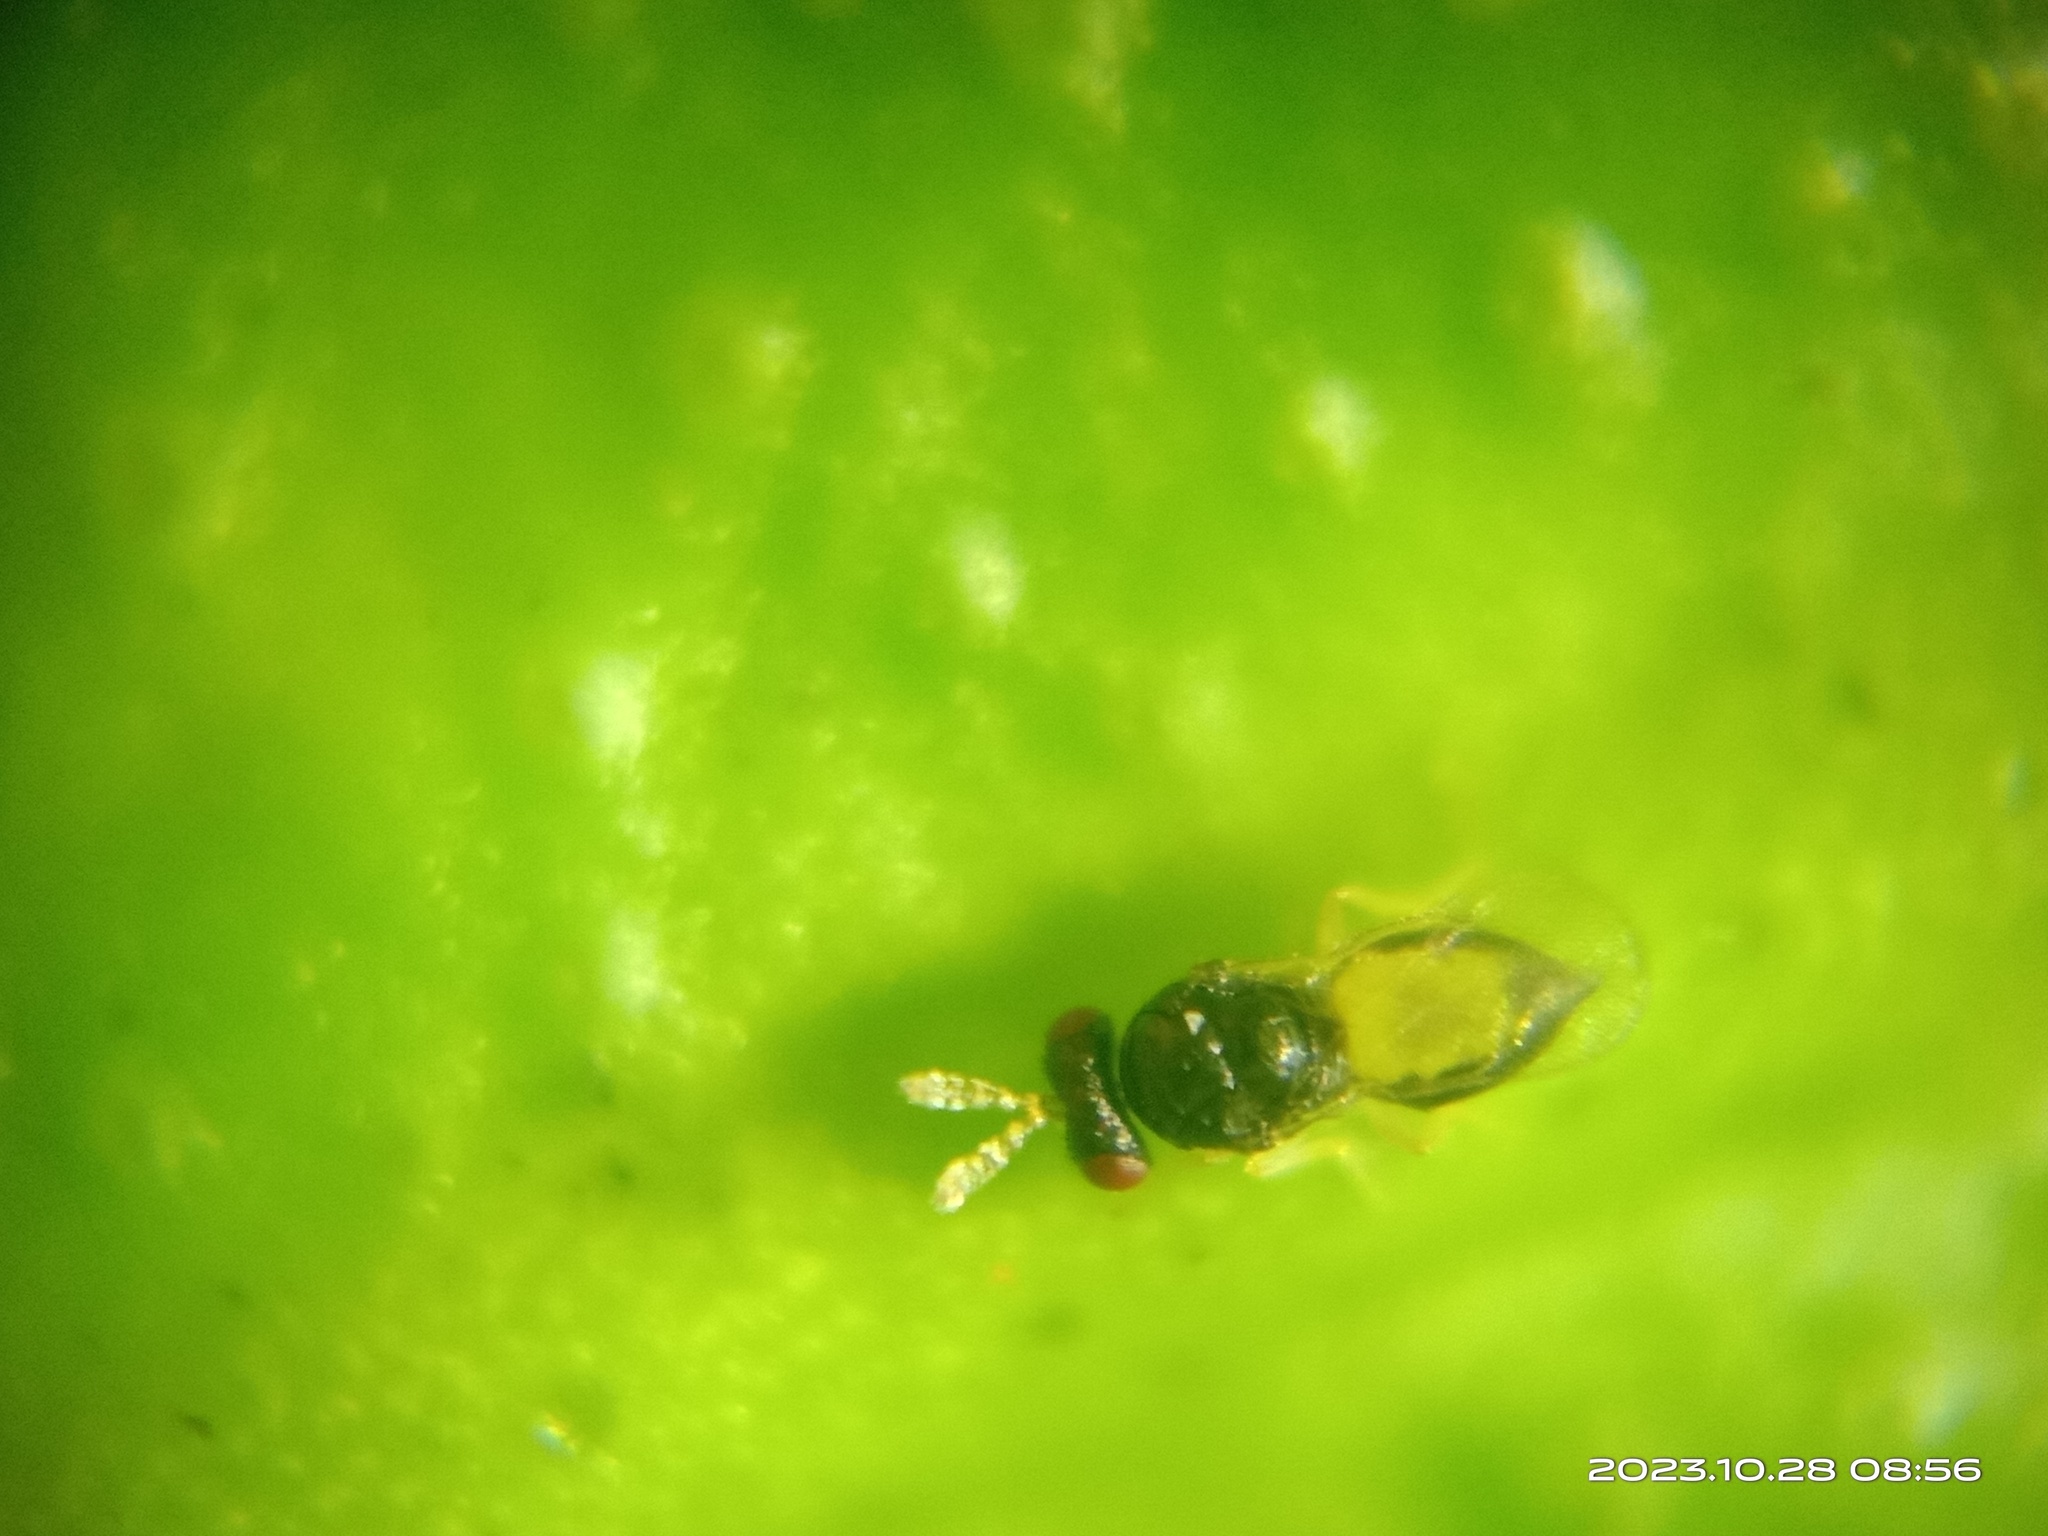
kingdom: Animalia
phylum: Arthropoda
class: Insecta
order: Hymenoptera
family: Eulophidae
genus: Tamarixia
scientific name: Tamarixia radiata
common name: Parasitoid wasp
